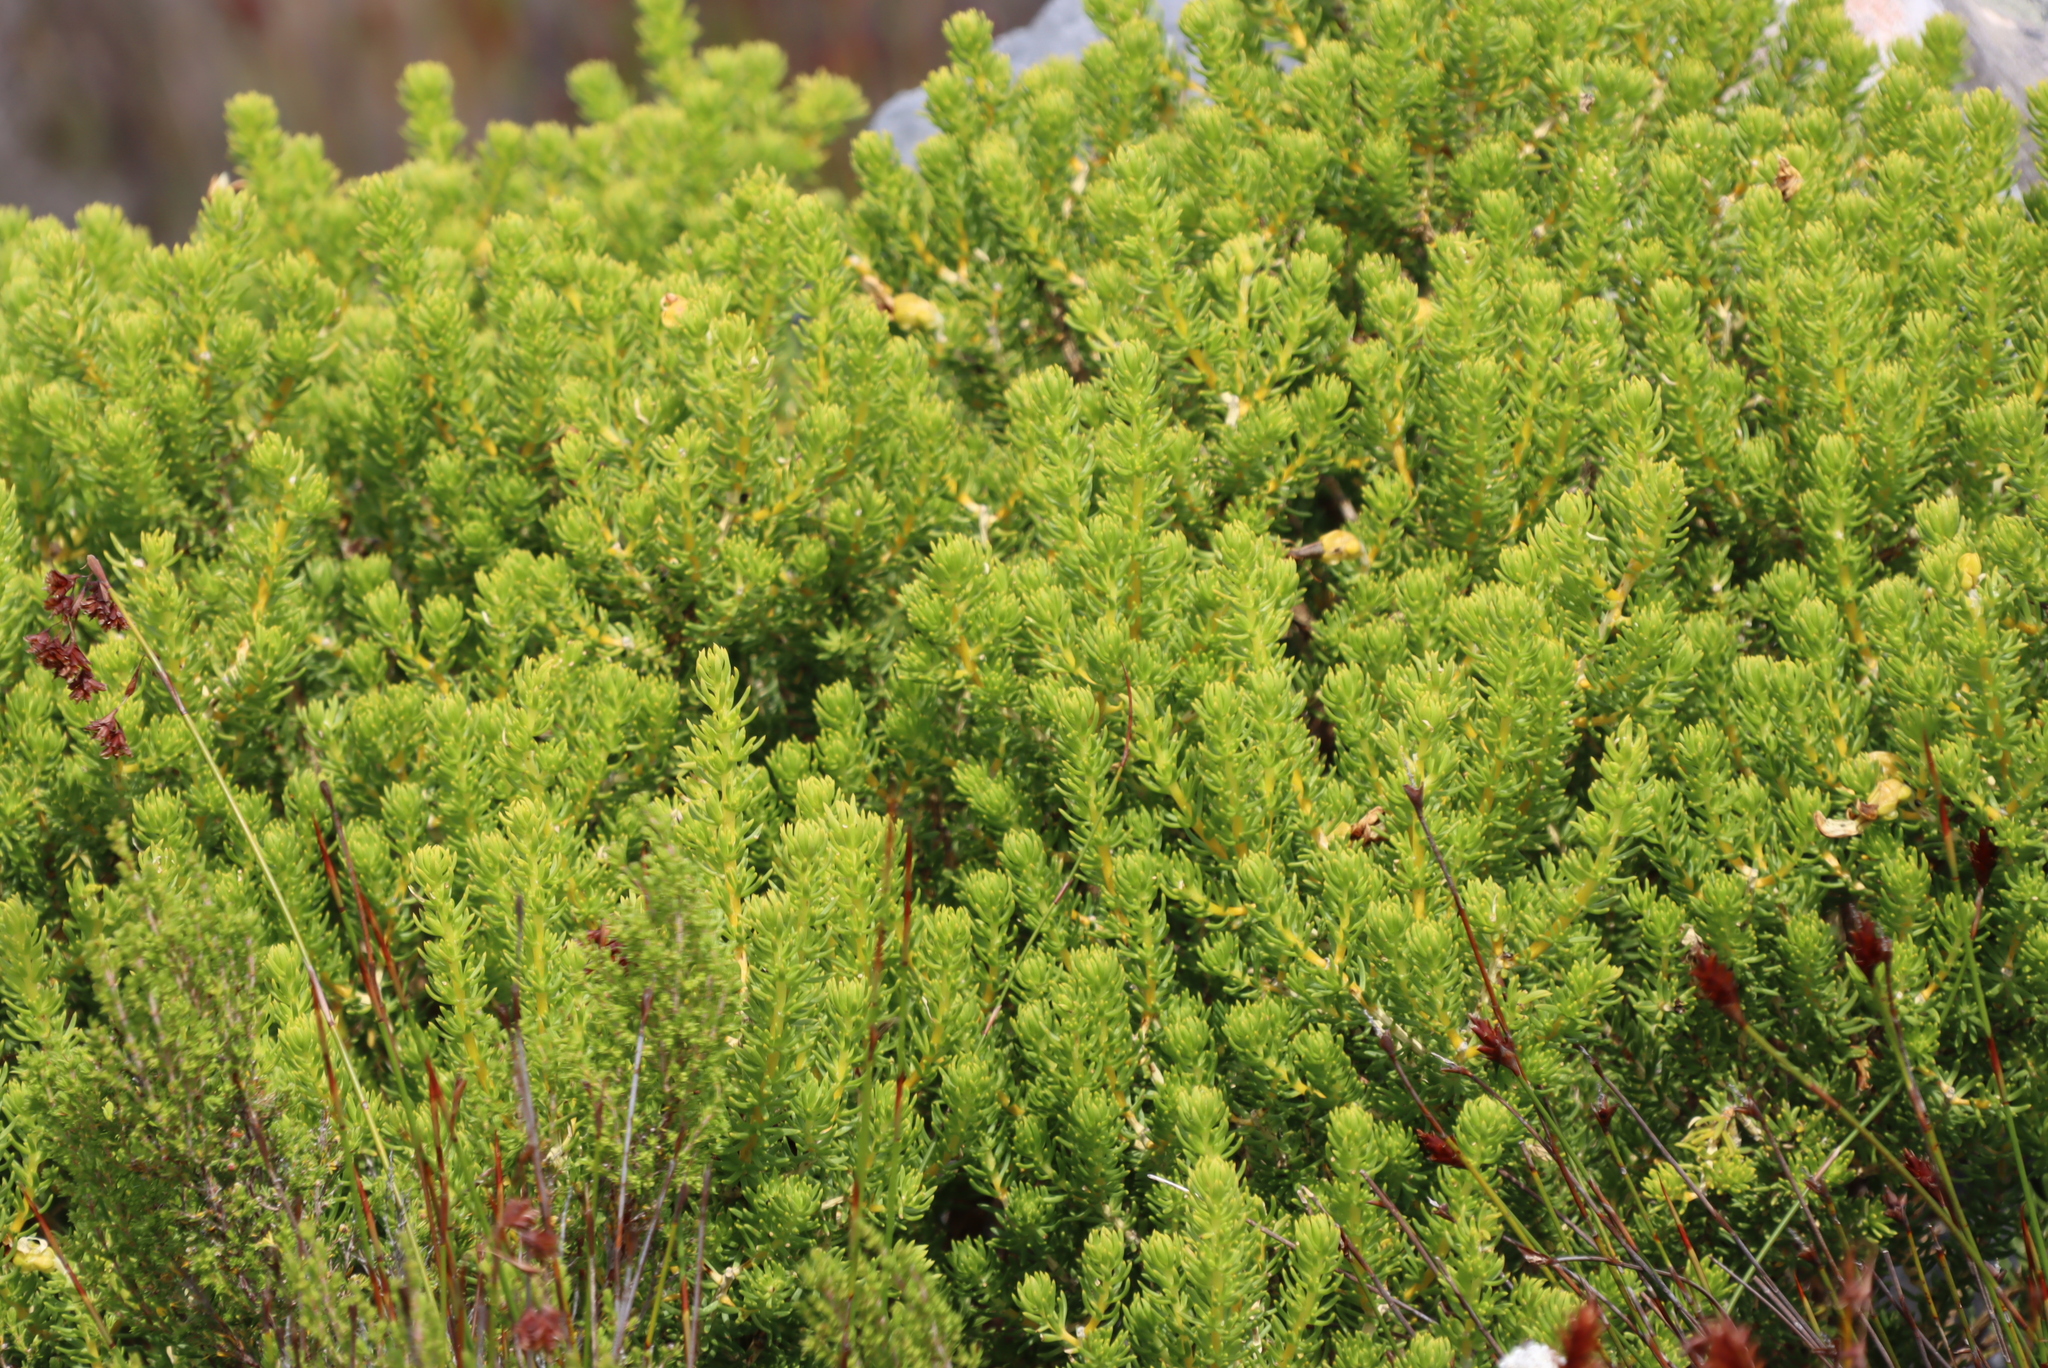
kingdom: Plantae
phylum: Tracheophyta
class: Magnoliopsida
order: Fabales
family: Fabaceae
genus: Aspalathus
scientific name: Aspalathus capensis
